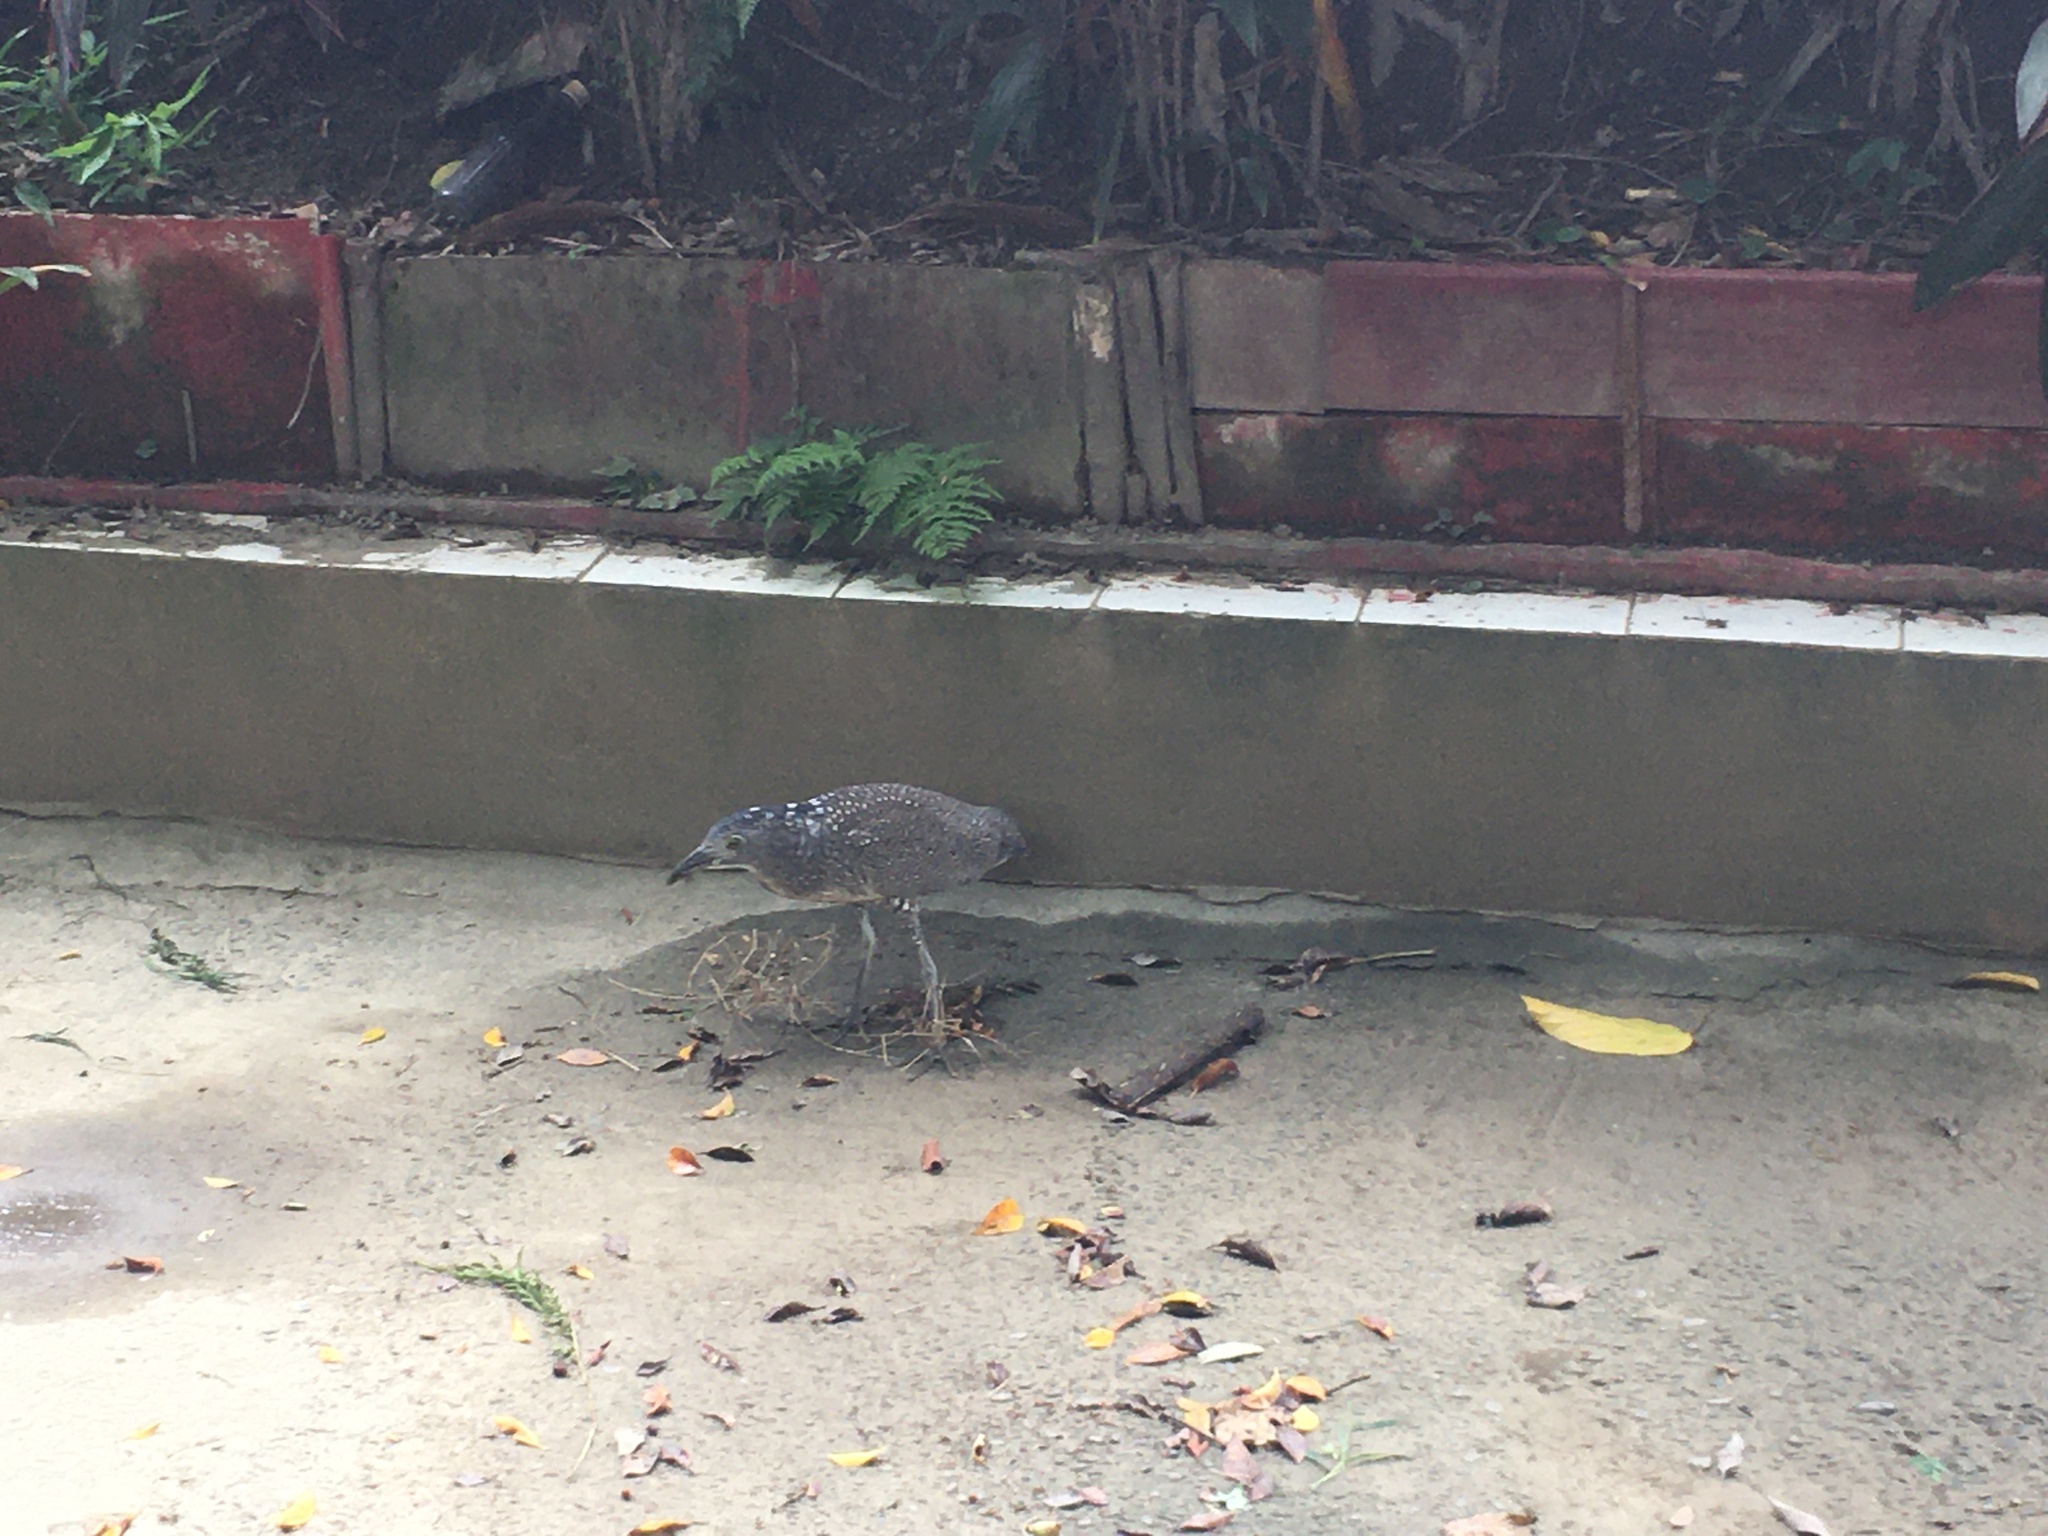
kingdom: Animalia
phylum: Chordata
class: Aves
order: Pelecaniformes
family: Ardeidae
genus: Gorsachius
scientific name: Gorsachius melanolophus
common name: Malayan night heron
